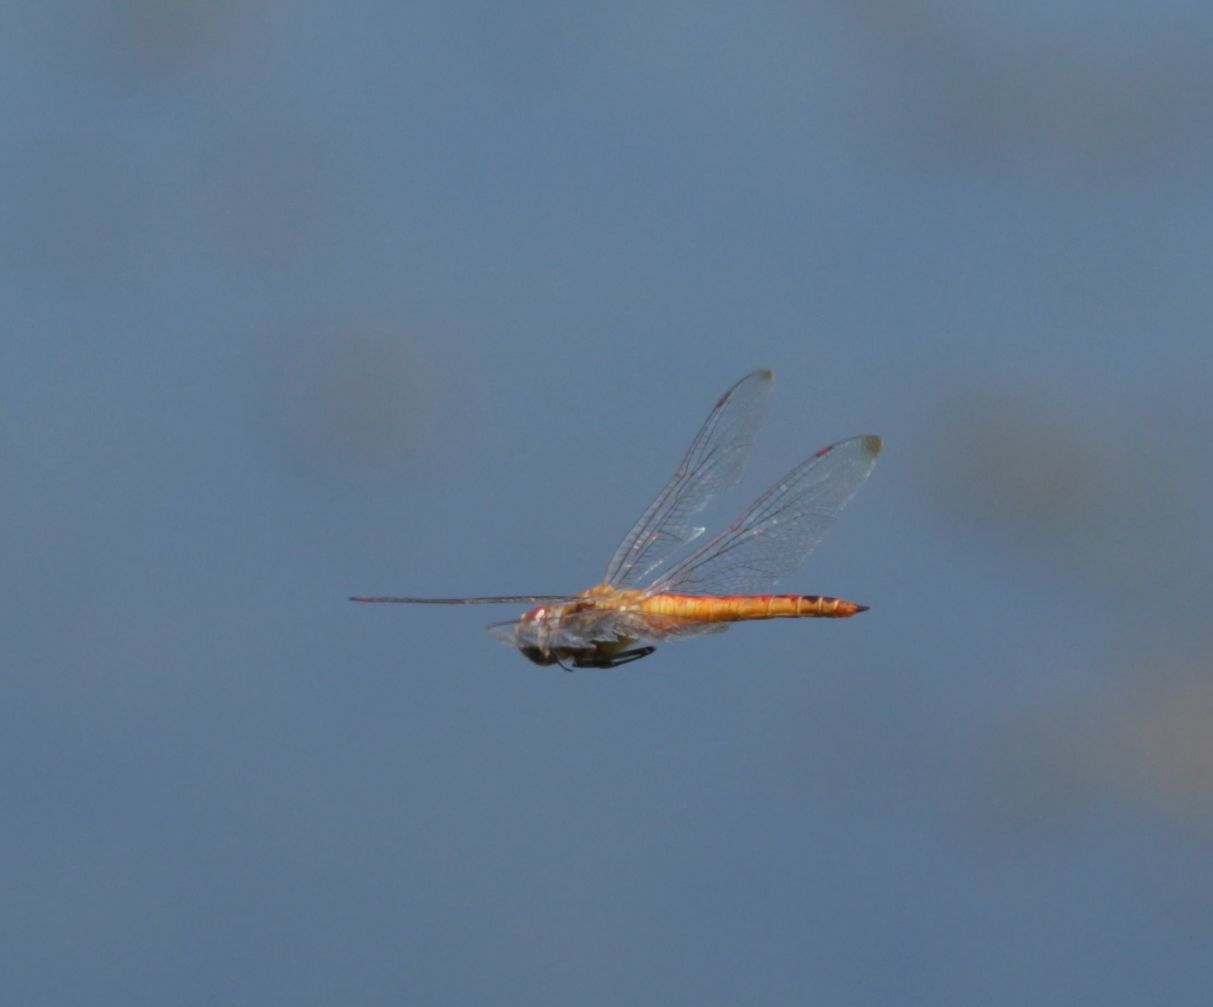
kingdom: Animalia
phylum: Arthropoda
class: Insecta
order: Odonata
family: Libellulidae
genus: Pantala
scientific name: Pantala flavescens
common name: Wandering glider
